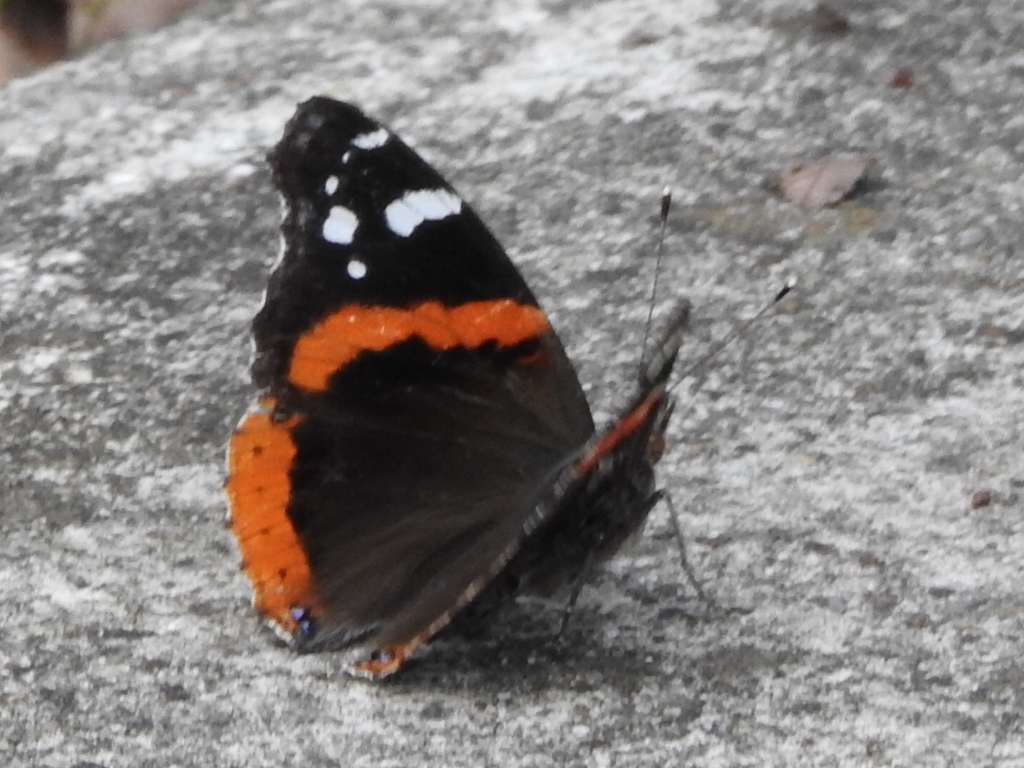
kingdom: Animalia
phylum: Arthropoda
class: Insecta
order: Lepidoptera
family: Nymphalidae
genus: Vanessa
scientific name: Vanessa atalanta
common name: Red admiral
